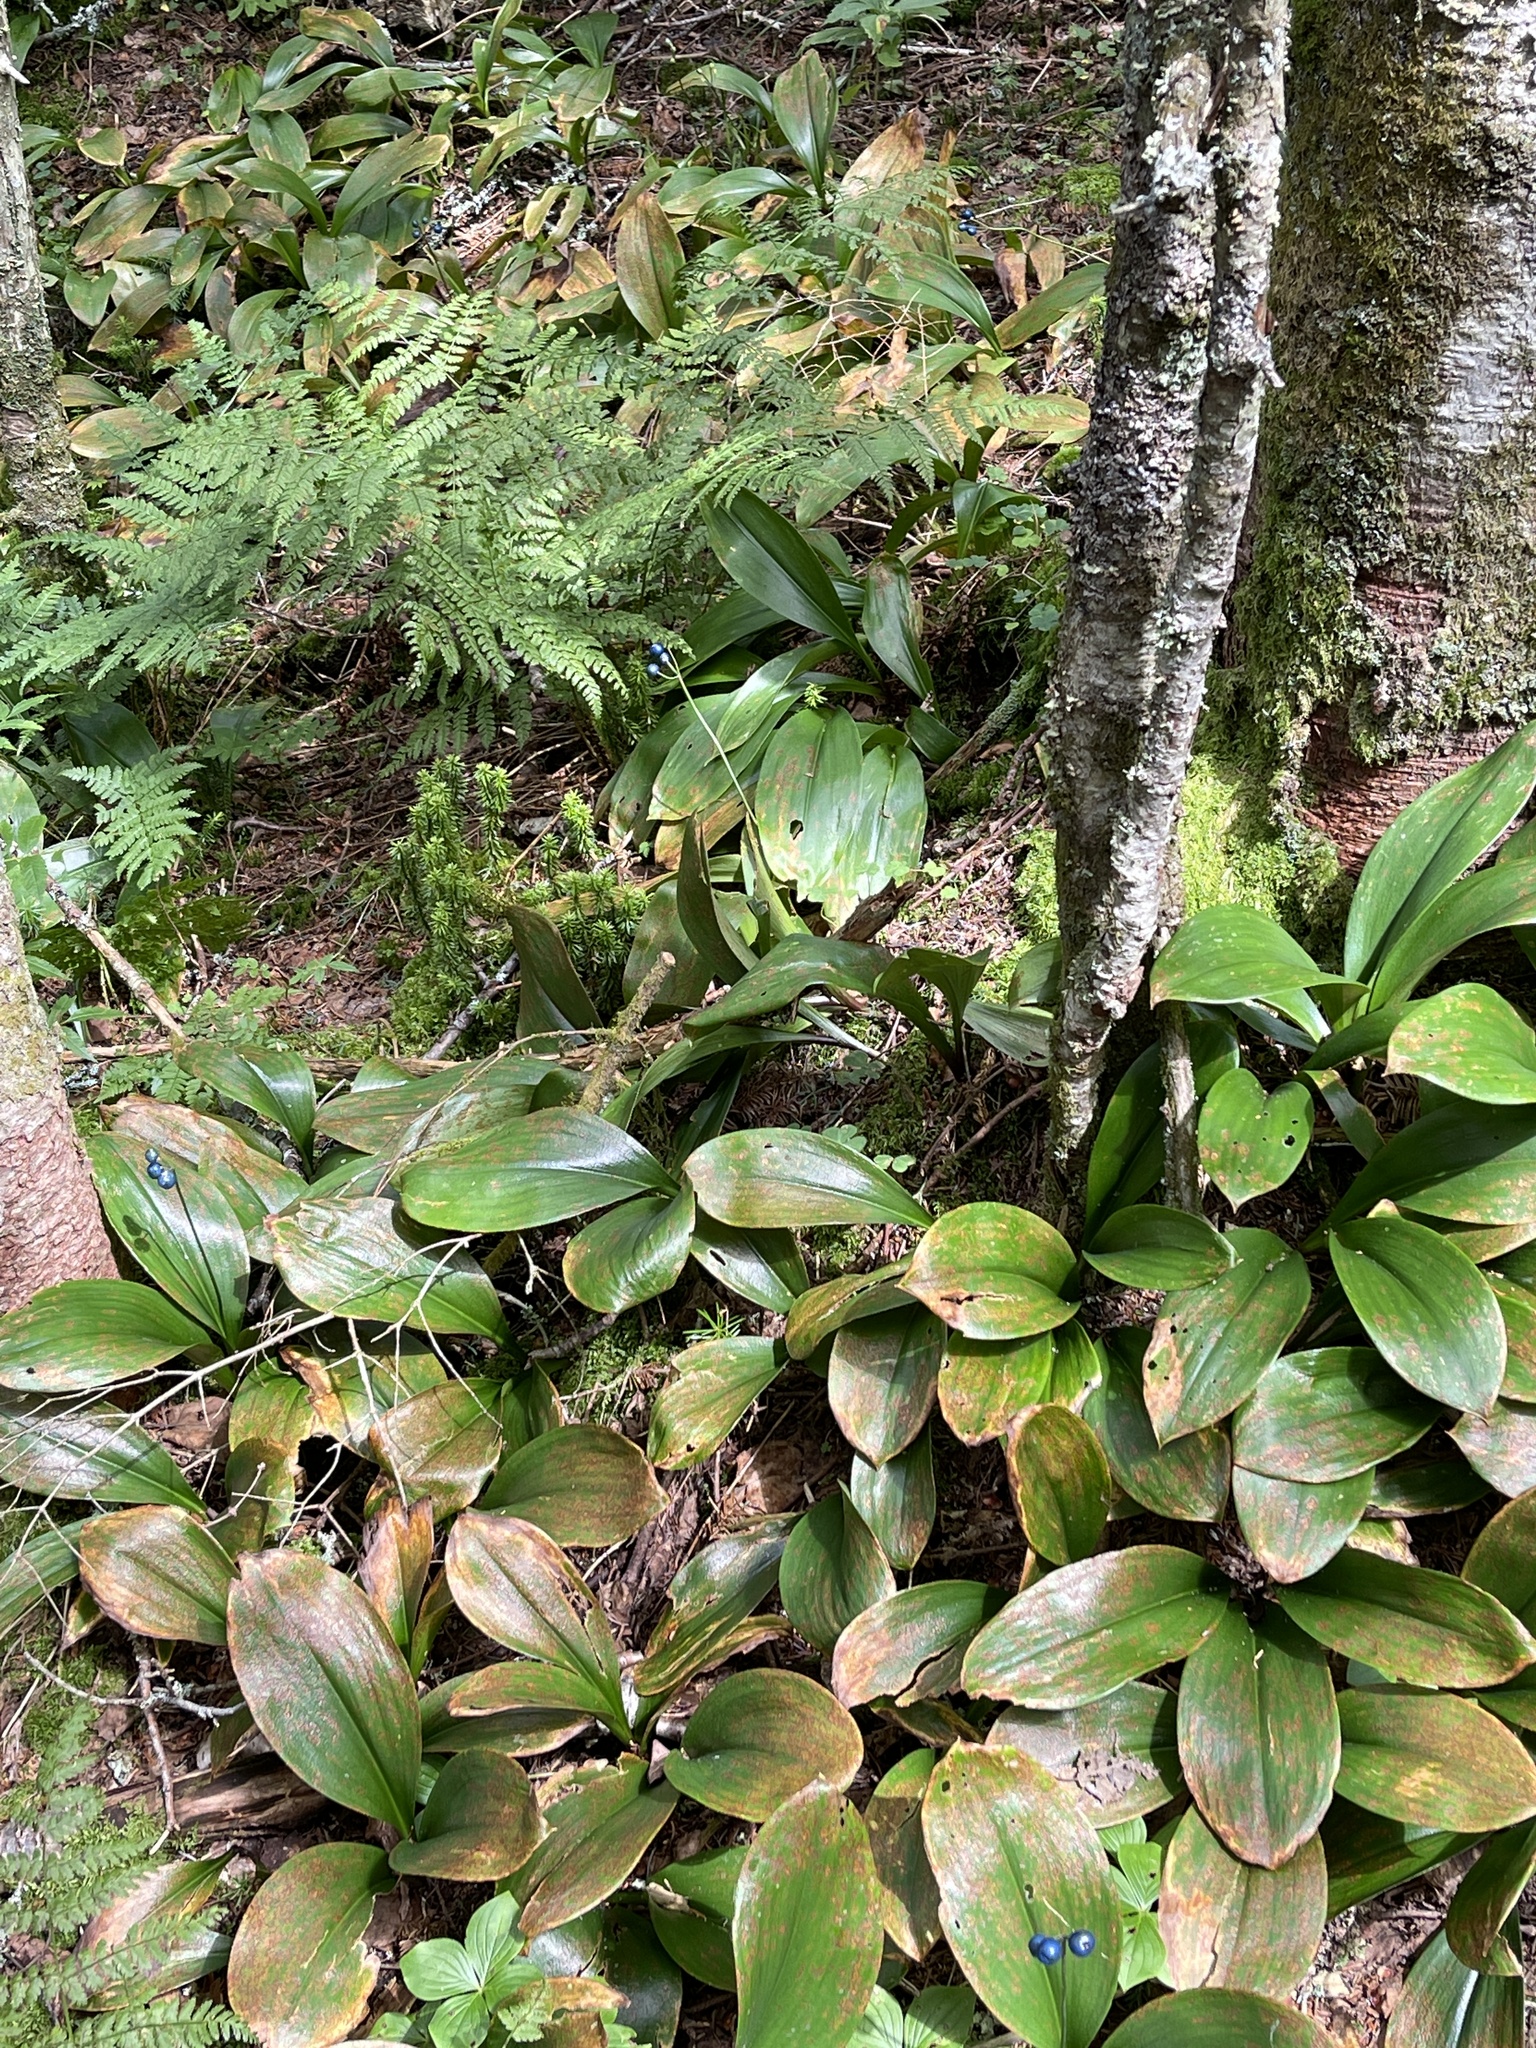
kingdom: Plantae
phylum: Tracheophyta
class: Liliopsida
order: Liliales
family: Liliaceae
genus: Clintonia
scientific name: Clintonia borealis
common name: Yellow clintonia
